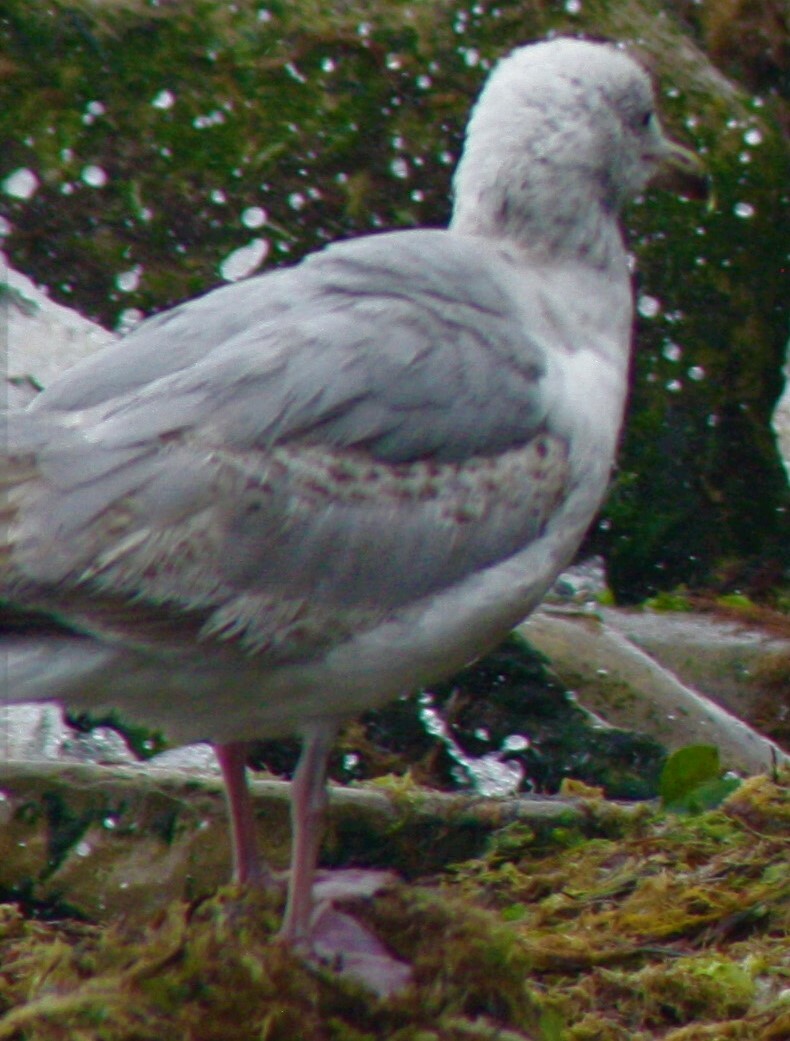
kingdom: Animalia
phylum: Chordata
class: Aves
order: Charadriiformes
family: Laridae
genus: Larus
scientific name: Larus argentatus
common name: Herring gull
